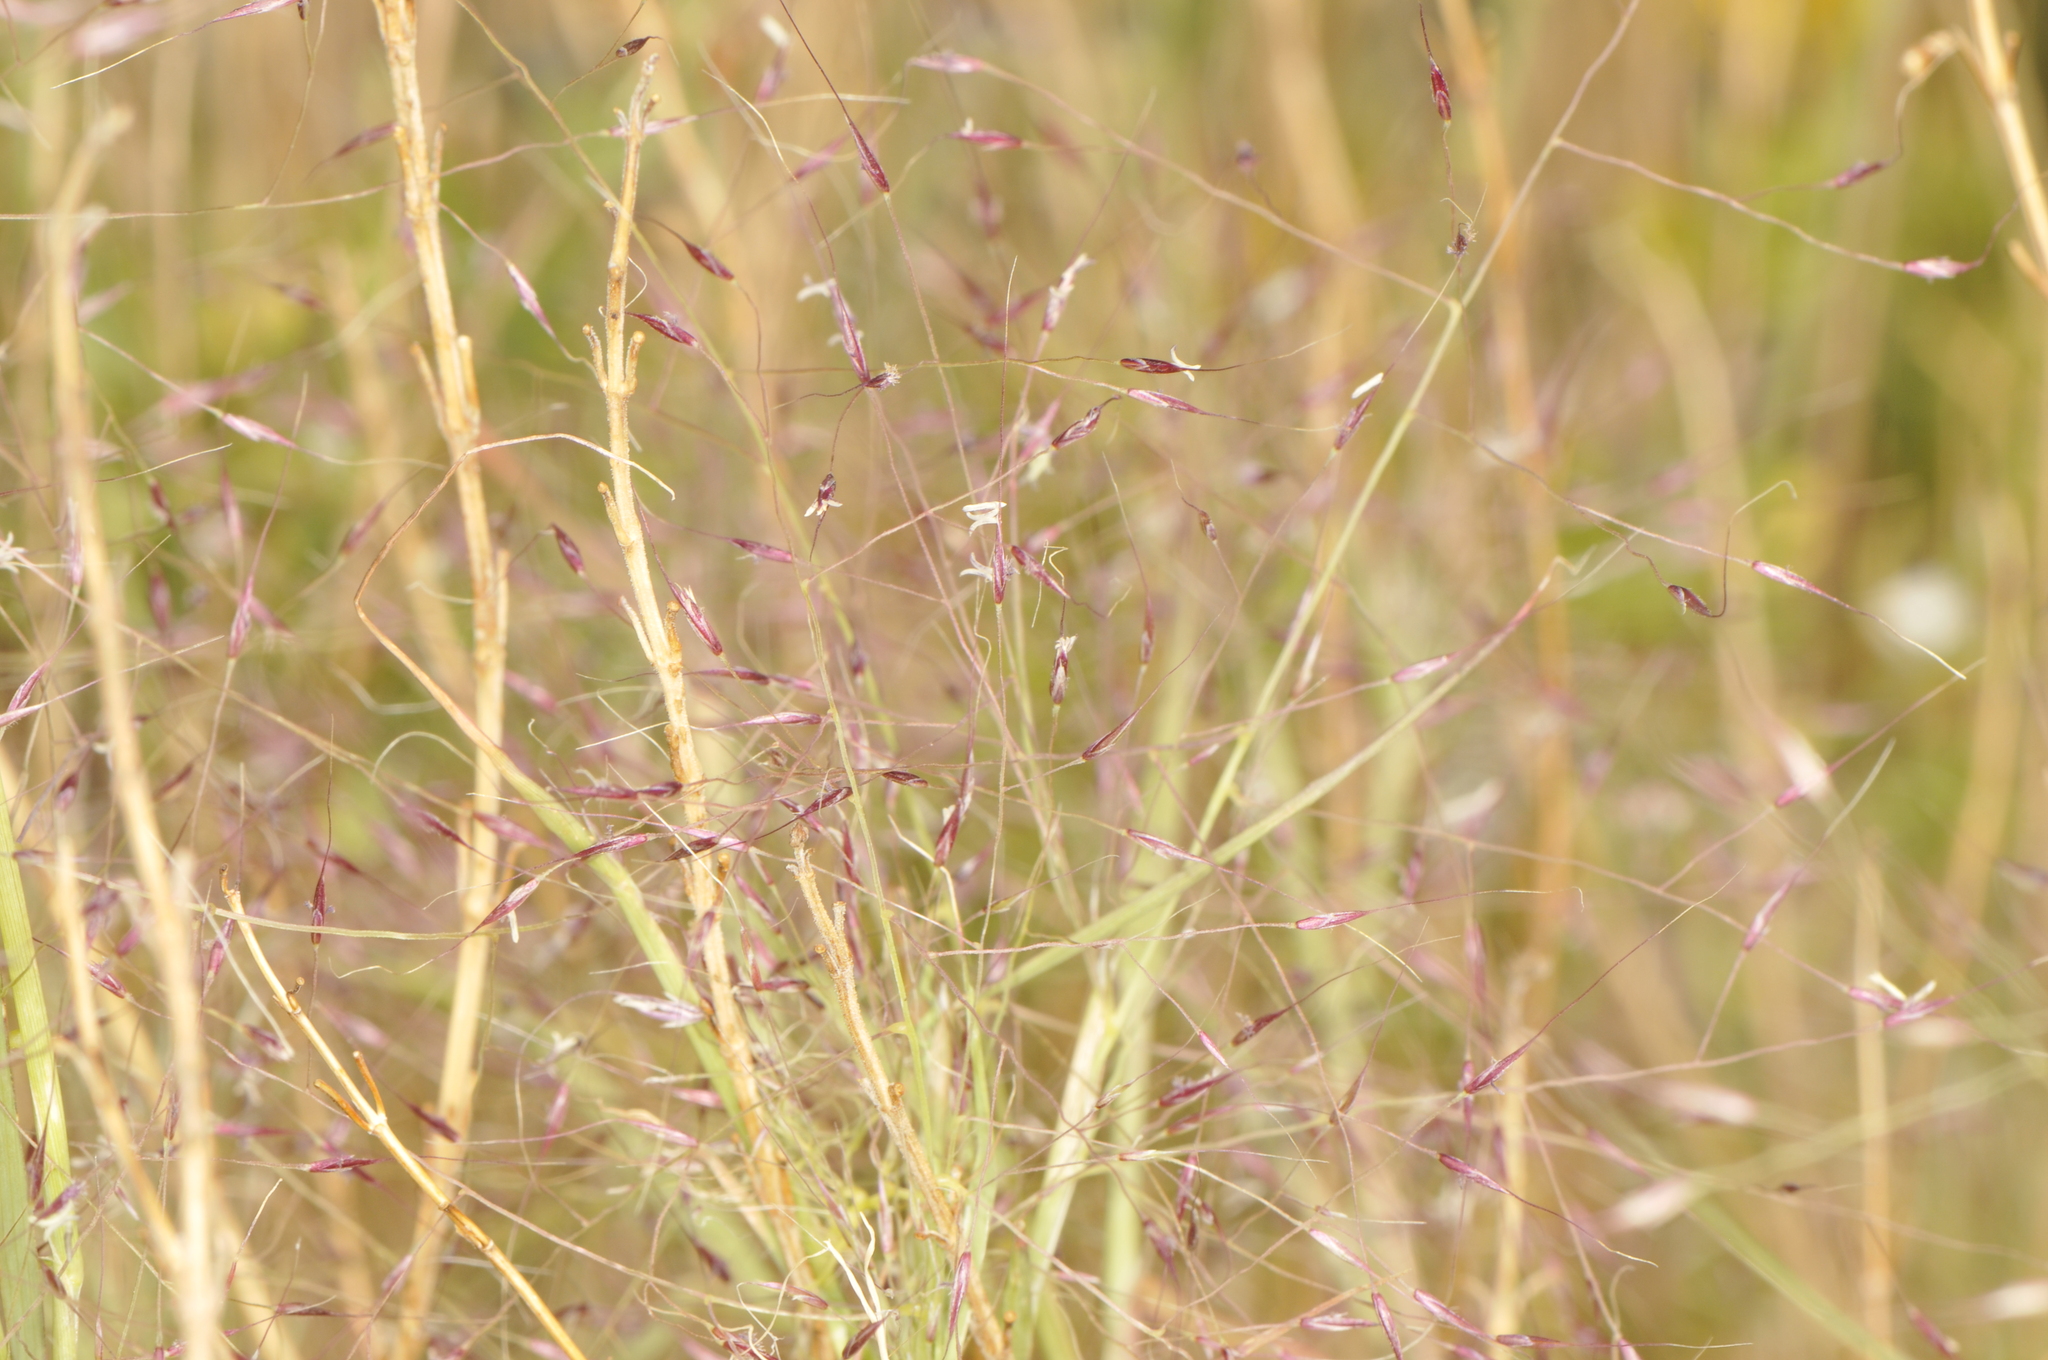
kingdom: Plantae
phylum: Tracheophyta
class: Liliopsida
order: Poales
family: Poaceae
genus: Muhlenbergia
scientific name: Muhlenbergia porteri
